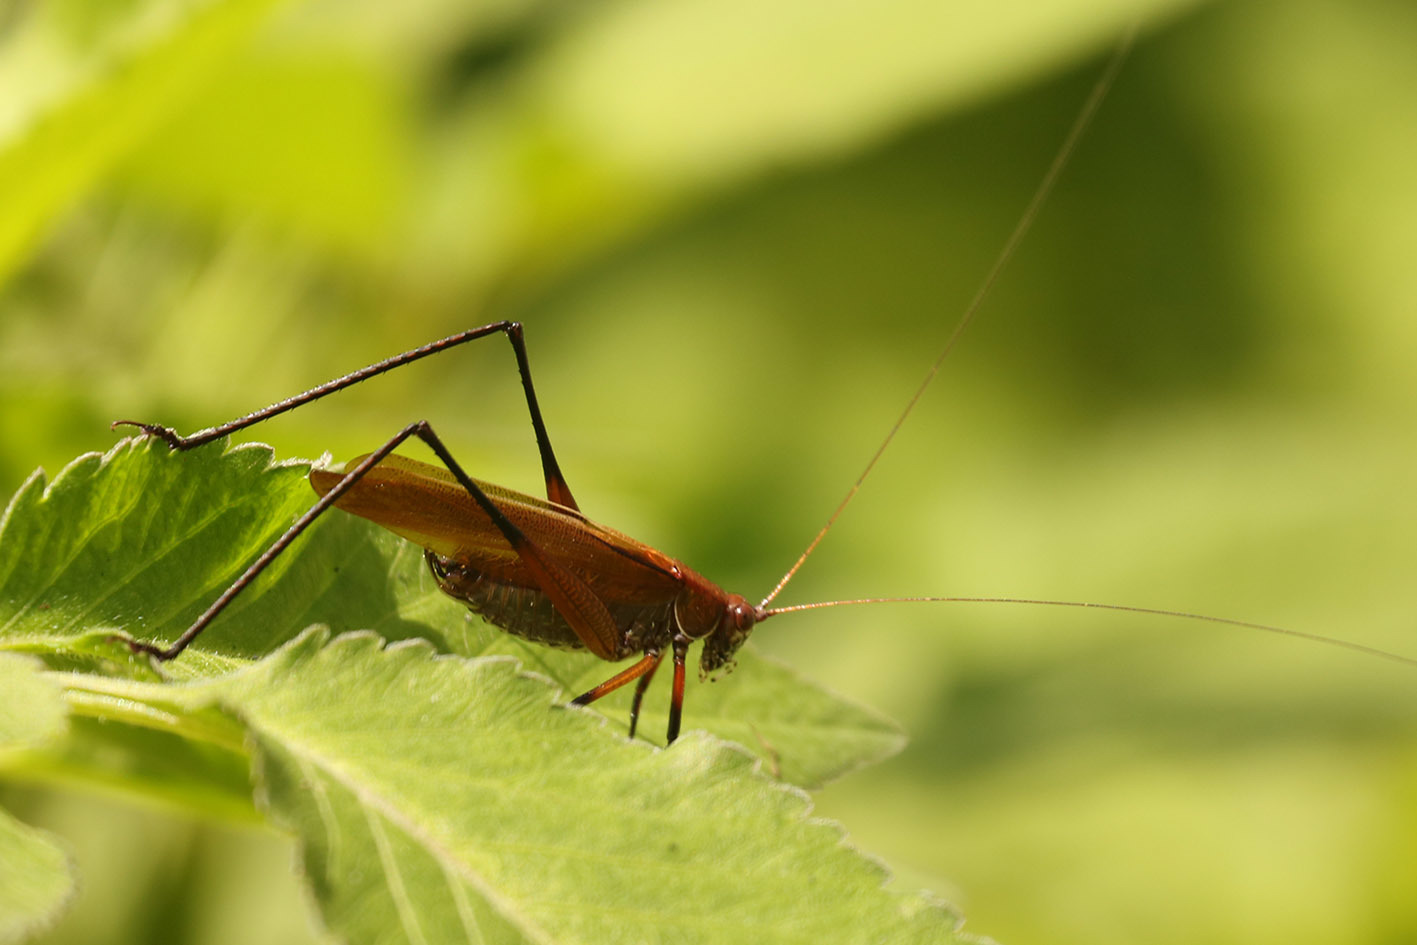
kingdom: Animalia
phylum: Arthropoda
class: Insecta
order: Orthoptera
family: Tettigoniidae
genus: Theudoria
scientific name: Theudoria melanocnemis
